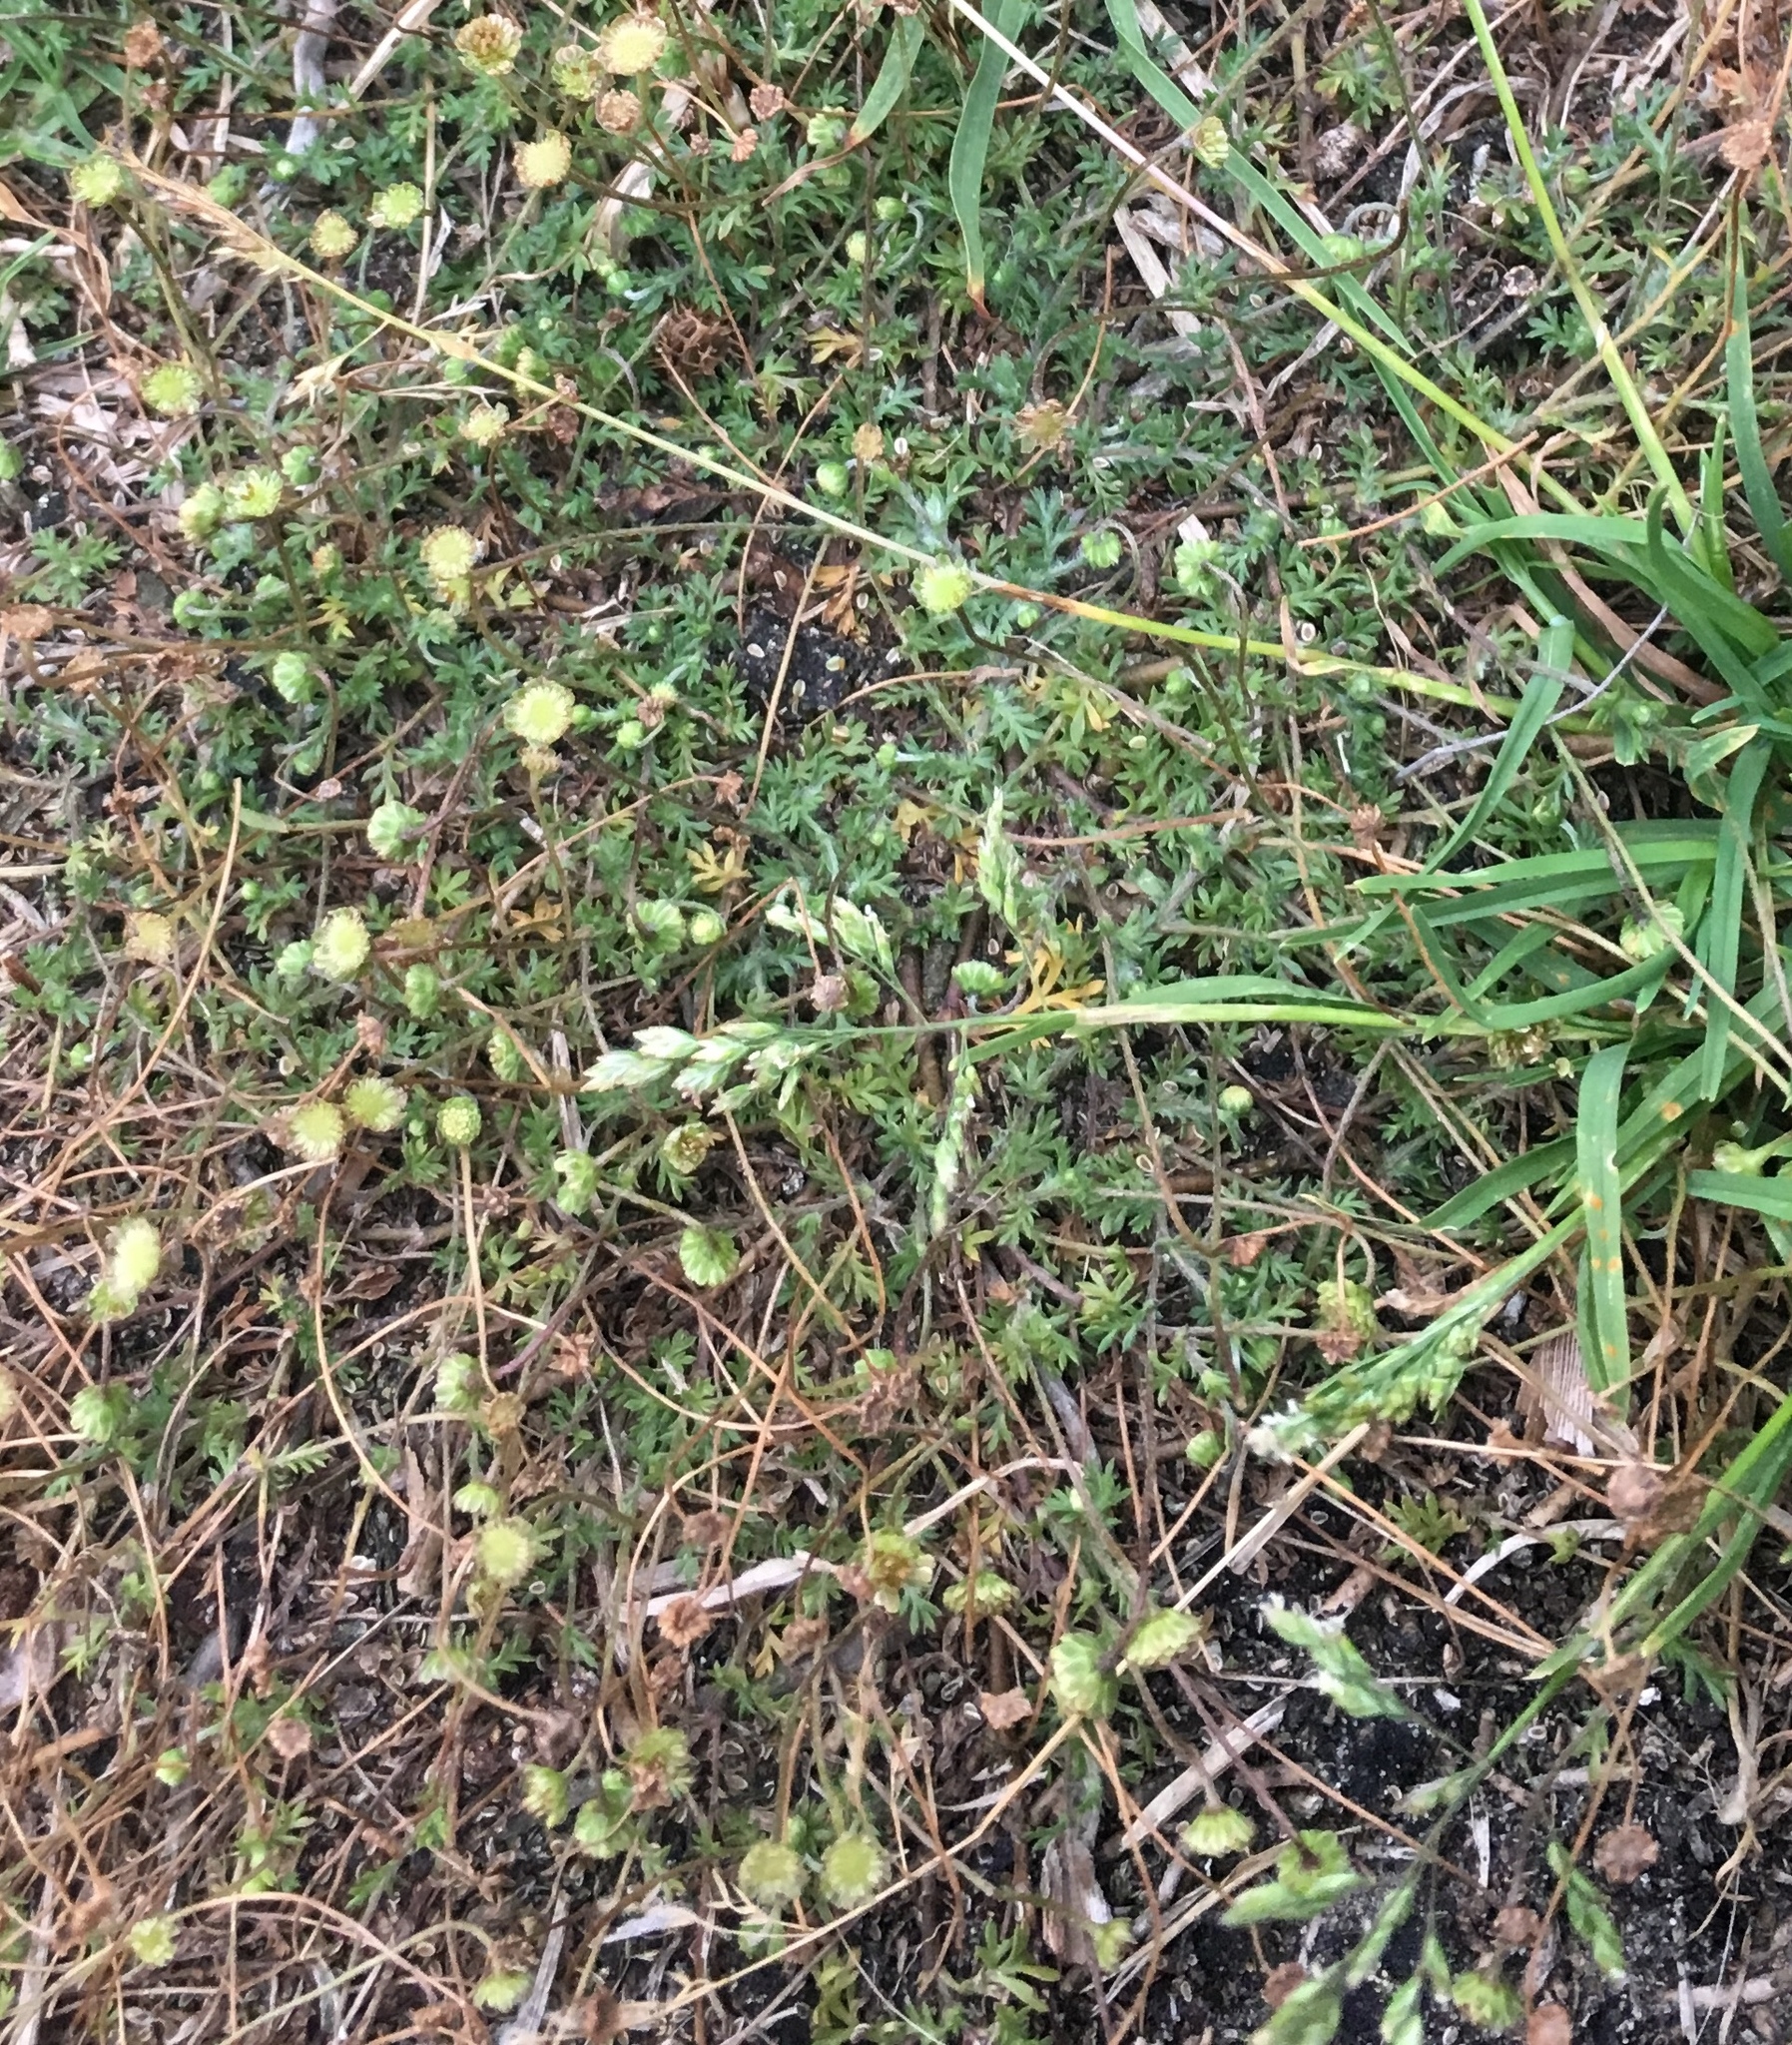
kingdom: Plantae
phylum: Tracheophyta
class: Magnoliopsida
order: Asterales
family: Asteraceae
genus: Cotula
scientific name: Cotula australis
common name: Australian waterbuttons
